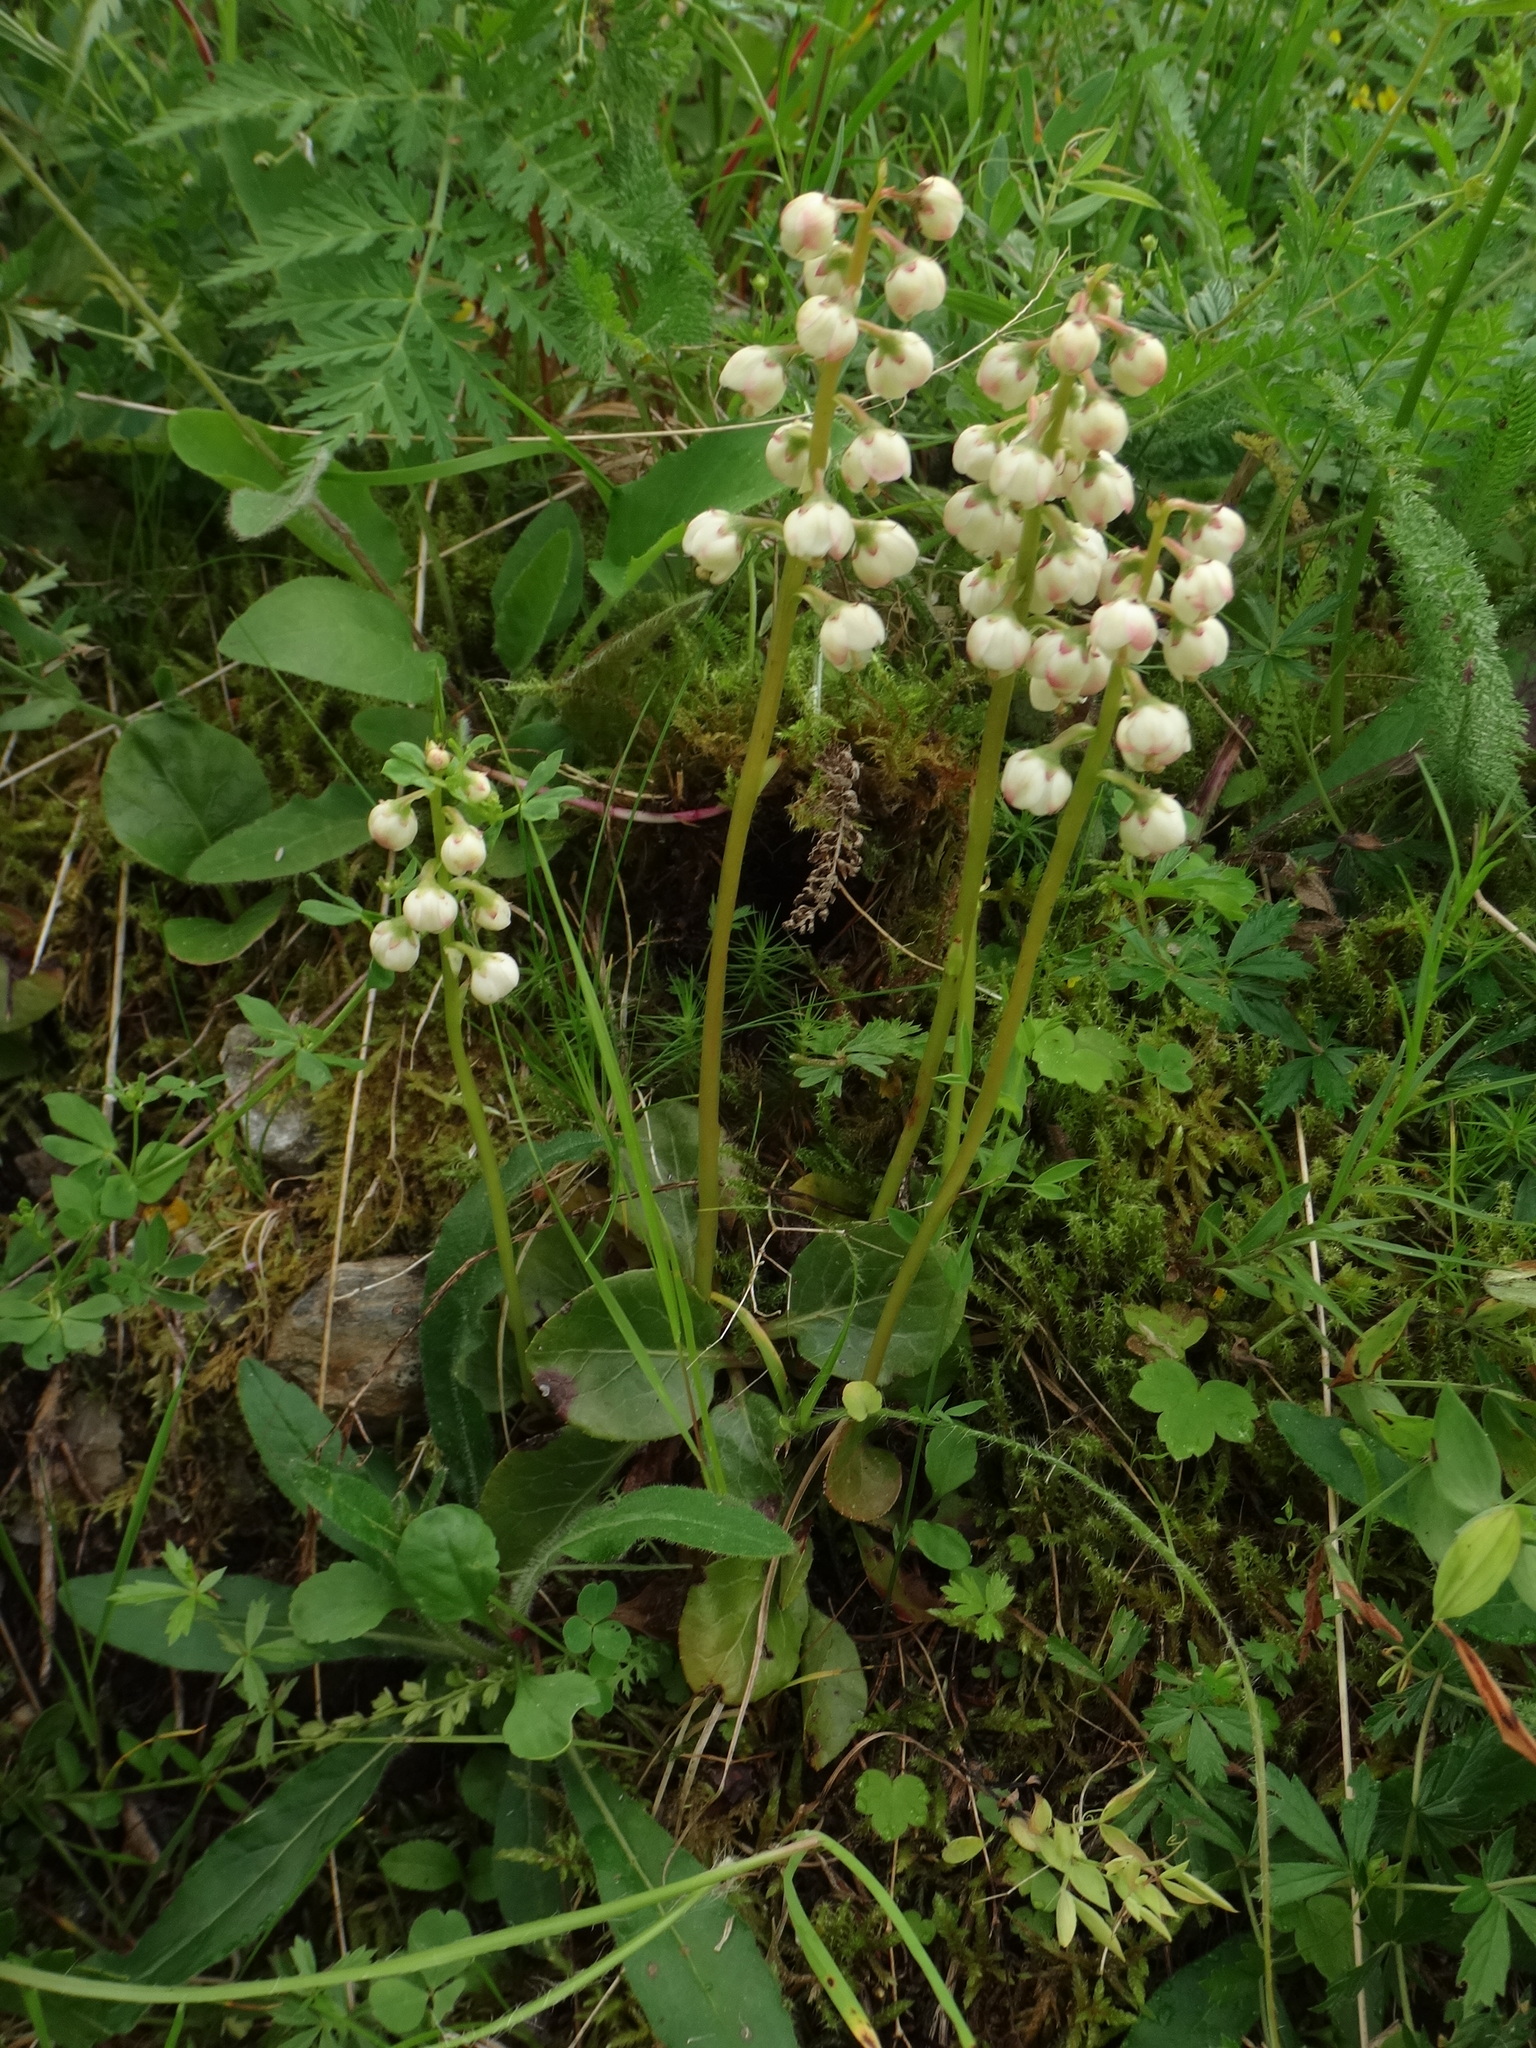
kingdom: Plantae
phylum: Tracheophyta
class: Magnoliopsida
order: Ericales
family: Ericaceae
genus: Pyrola
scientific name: Pyrola media
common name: Intermediate wintergreen
